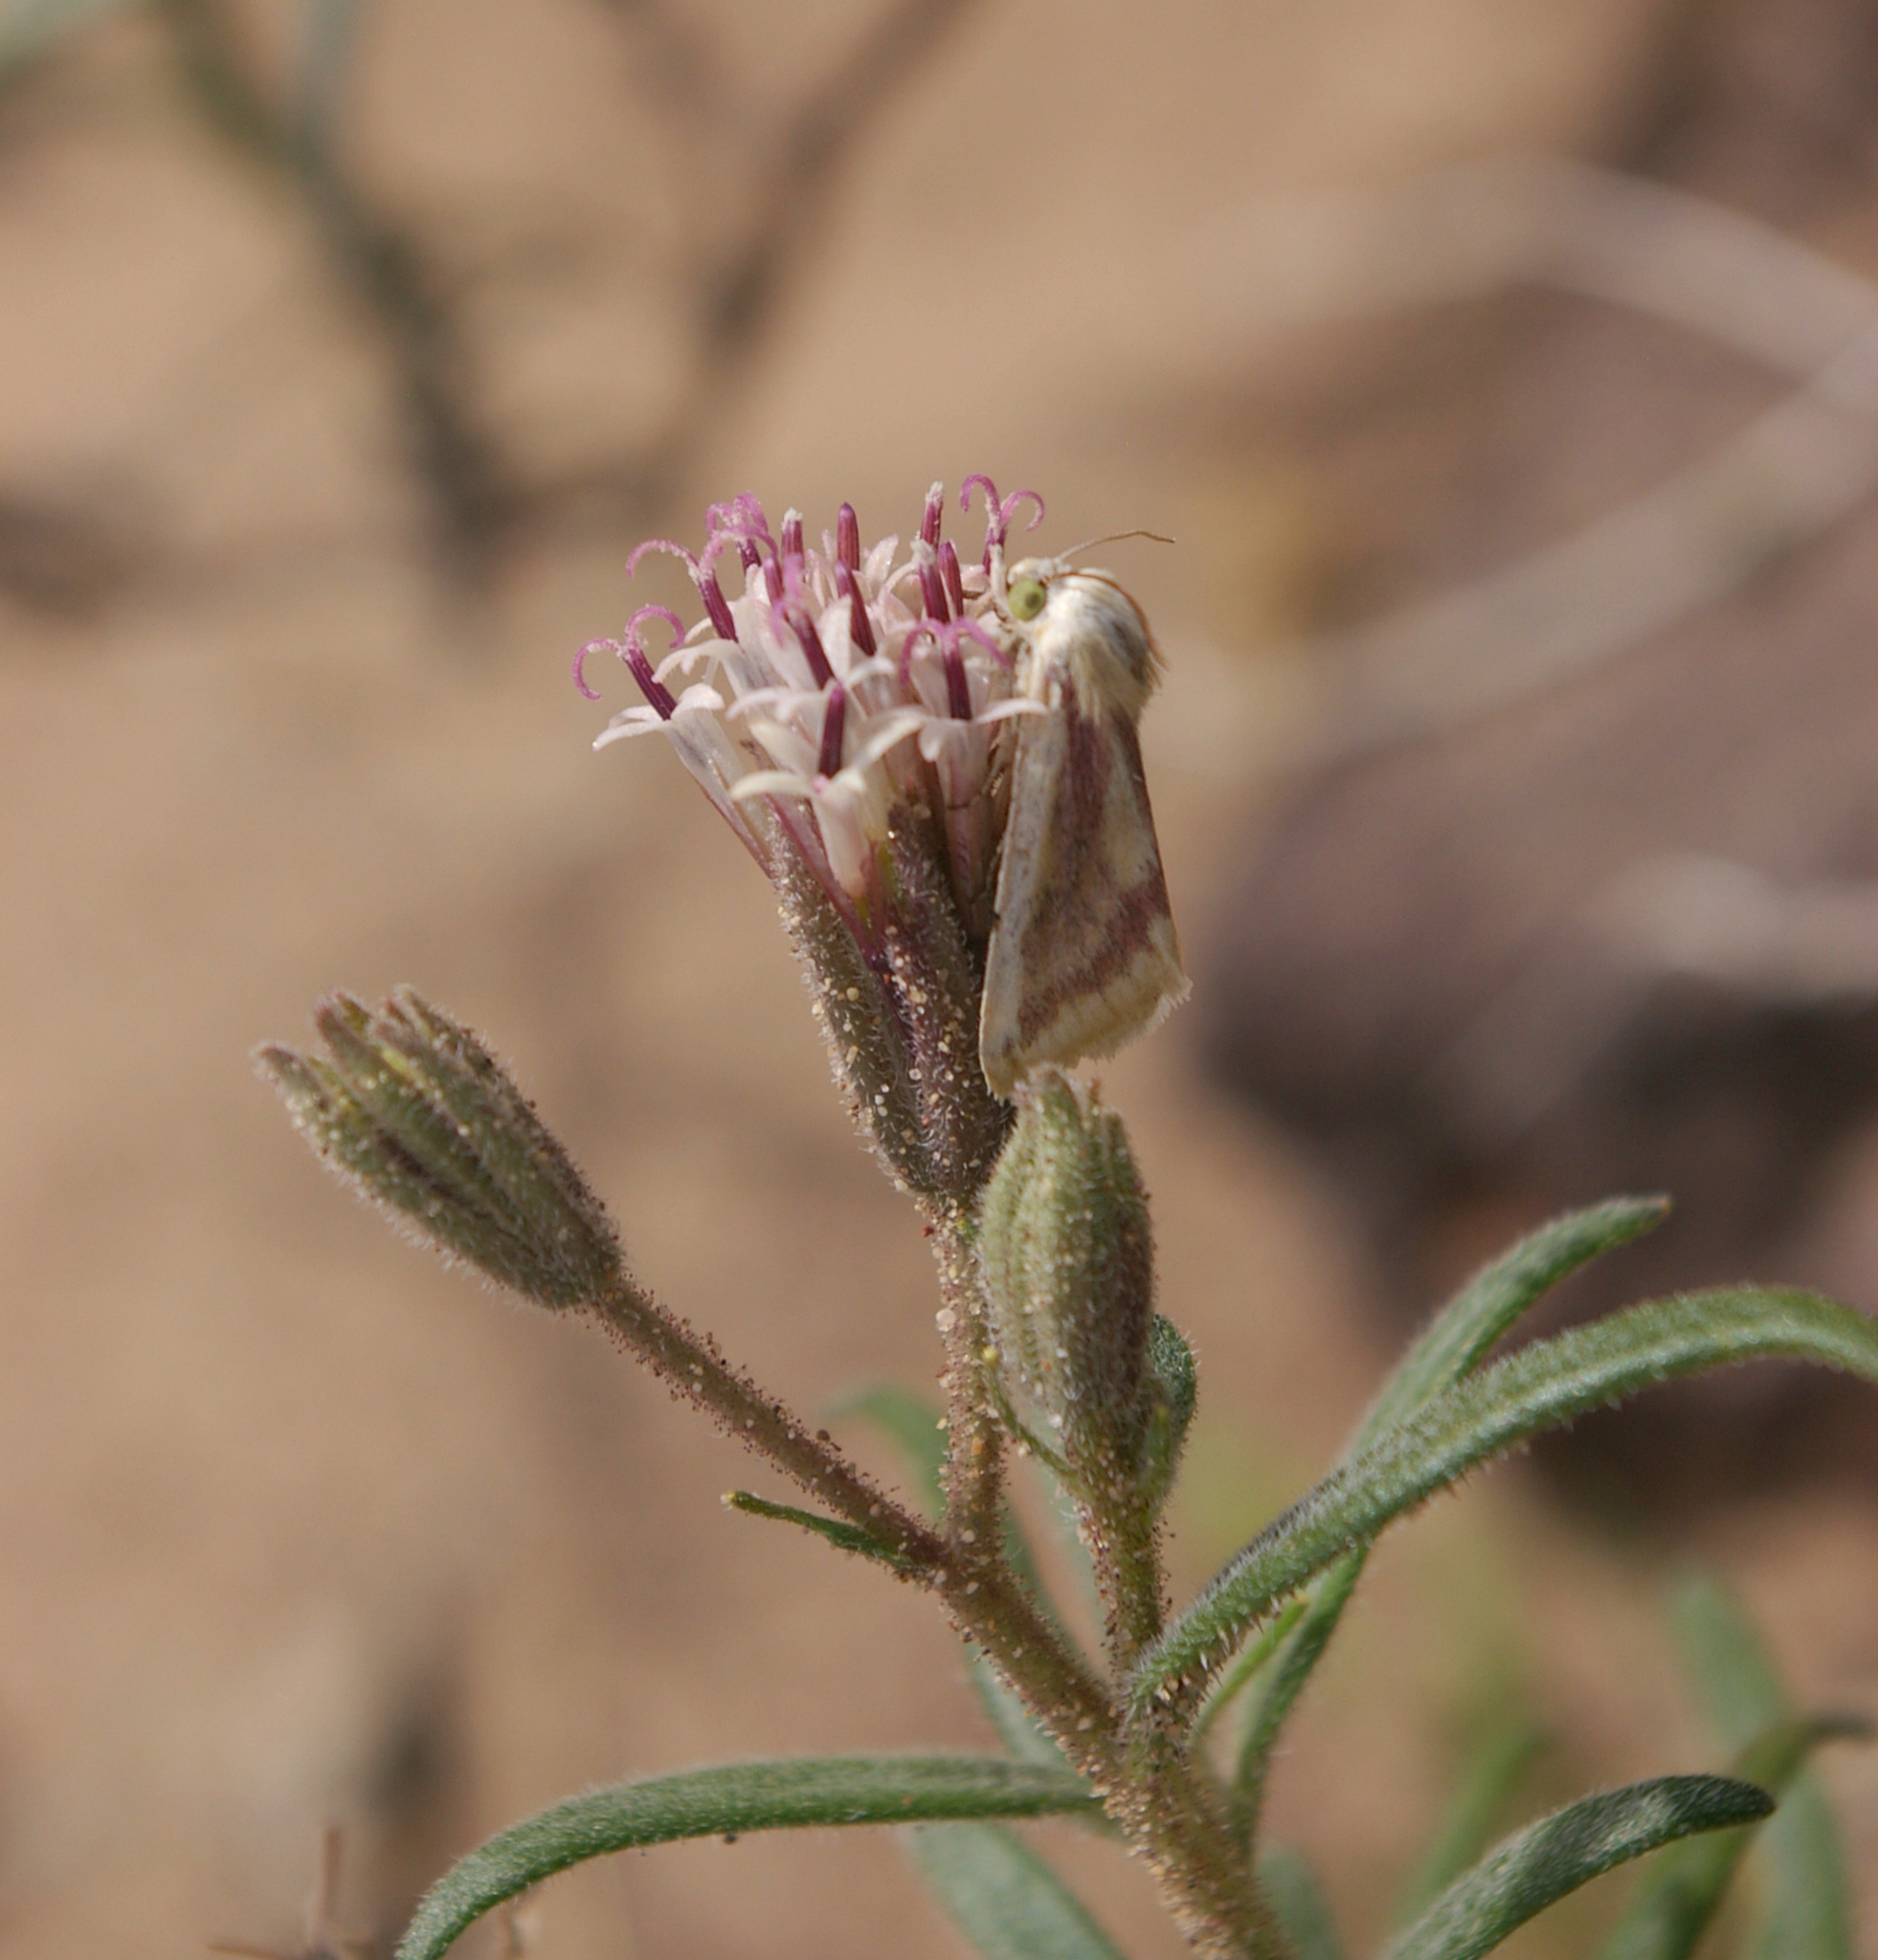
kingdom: Plantae
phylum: Tracheophyta
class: Magnoliopsida
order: Asterales
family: Asteraceae
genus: Palafoxia
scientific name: Palafoxia arida
